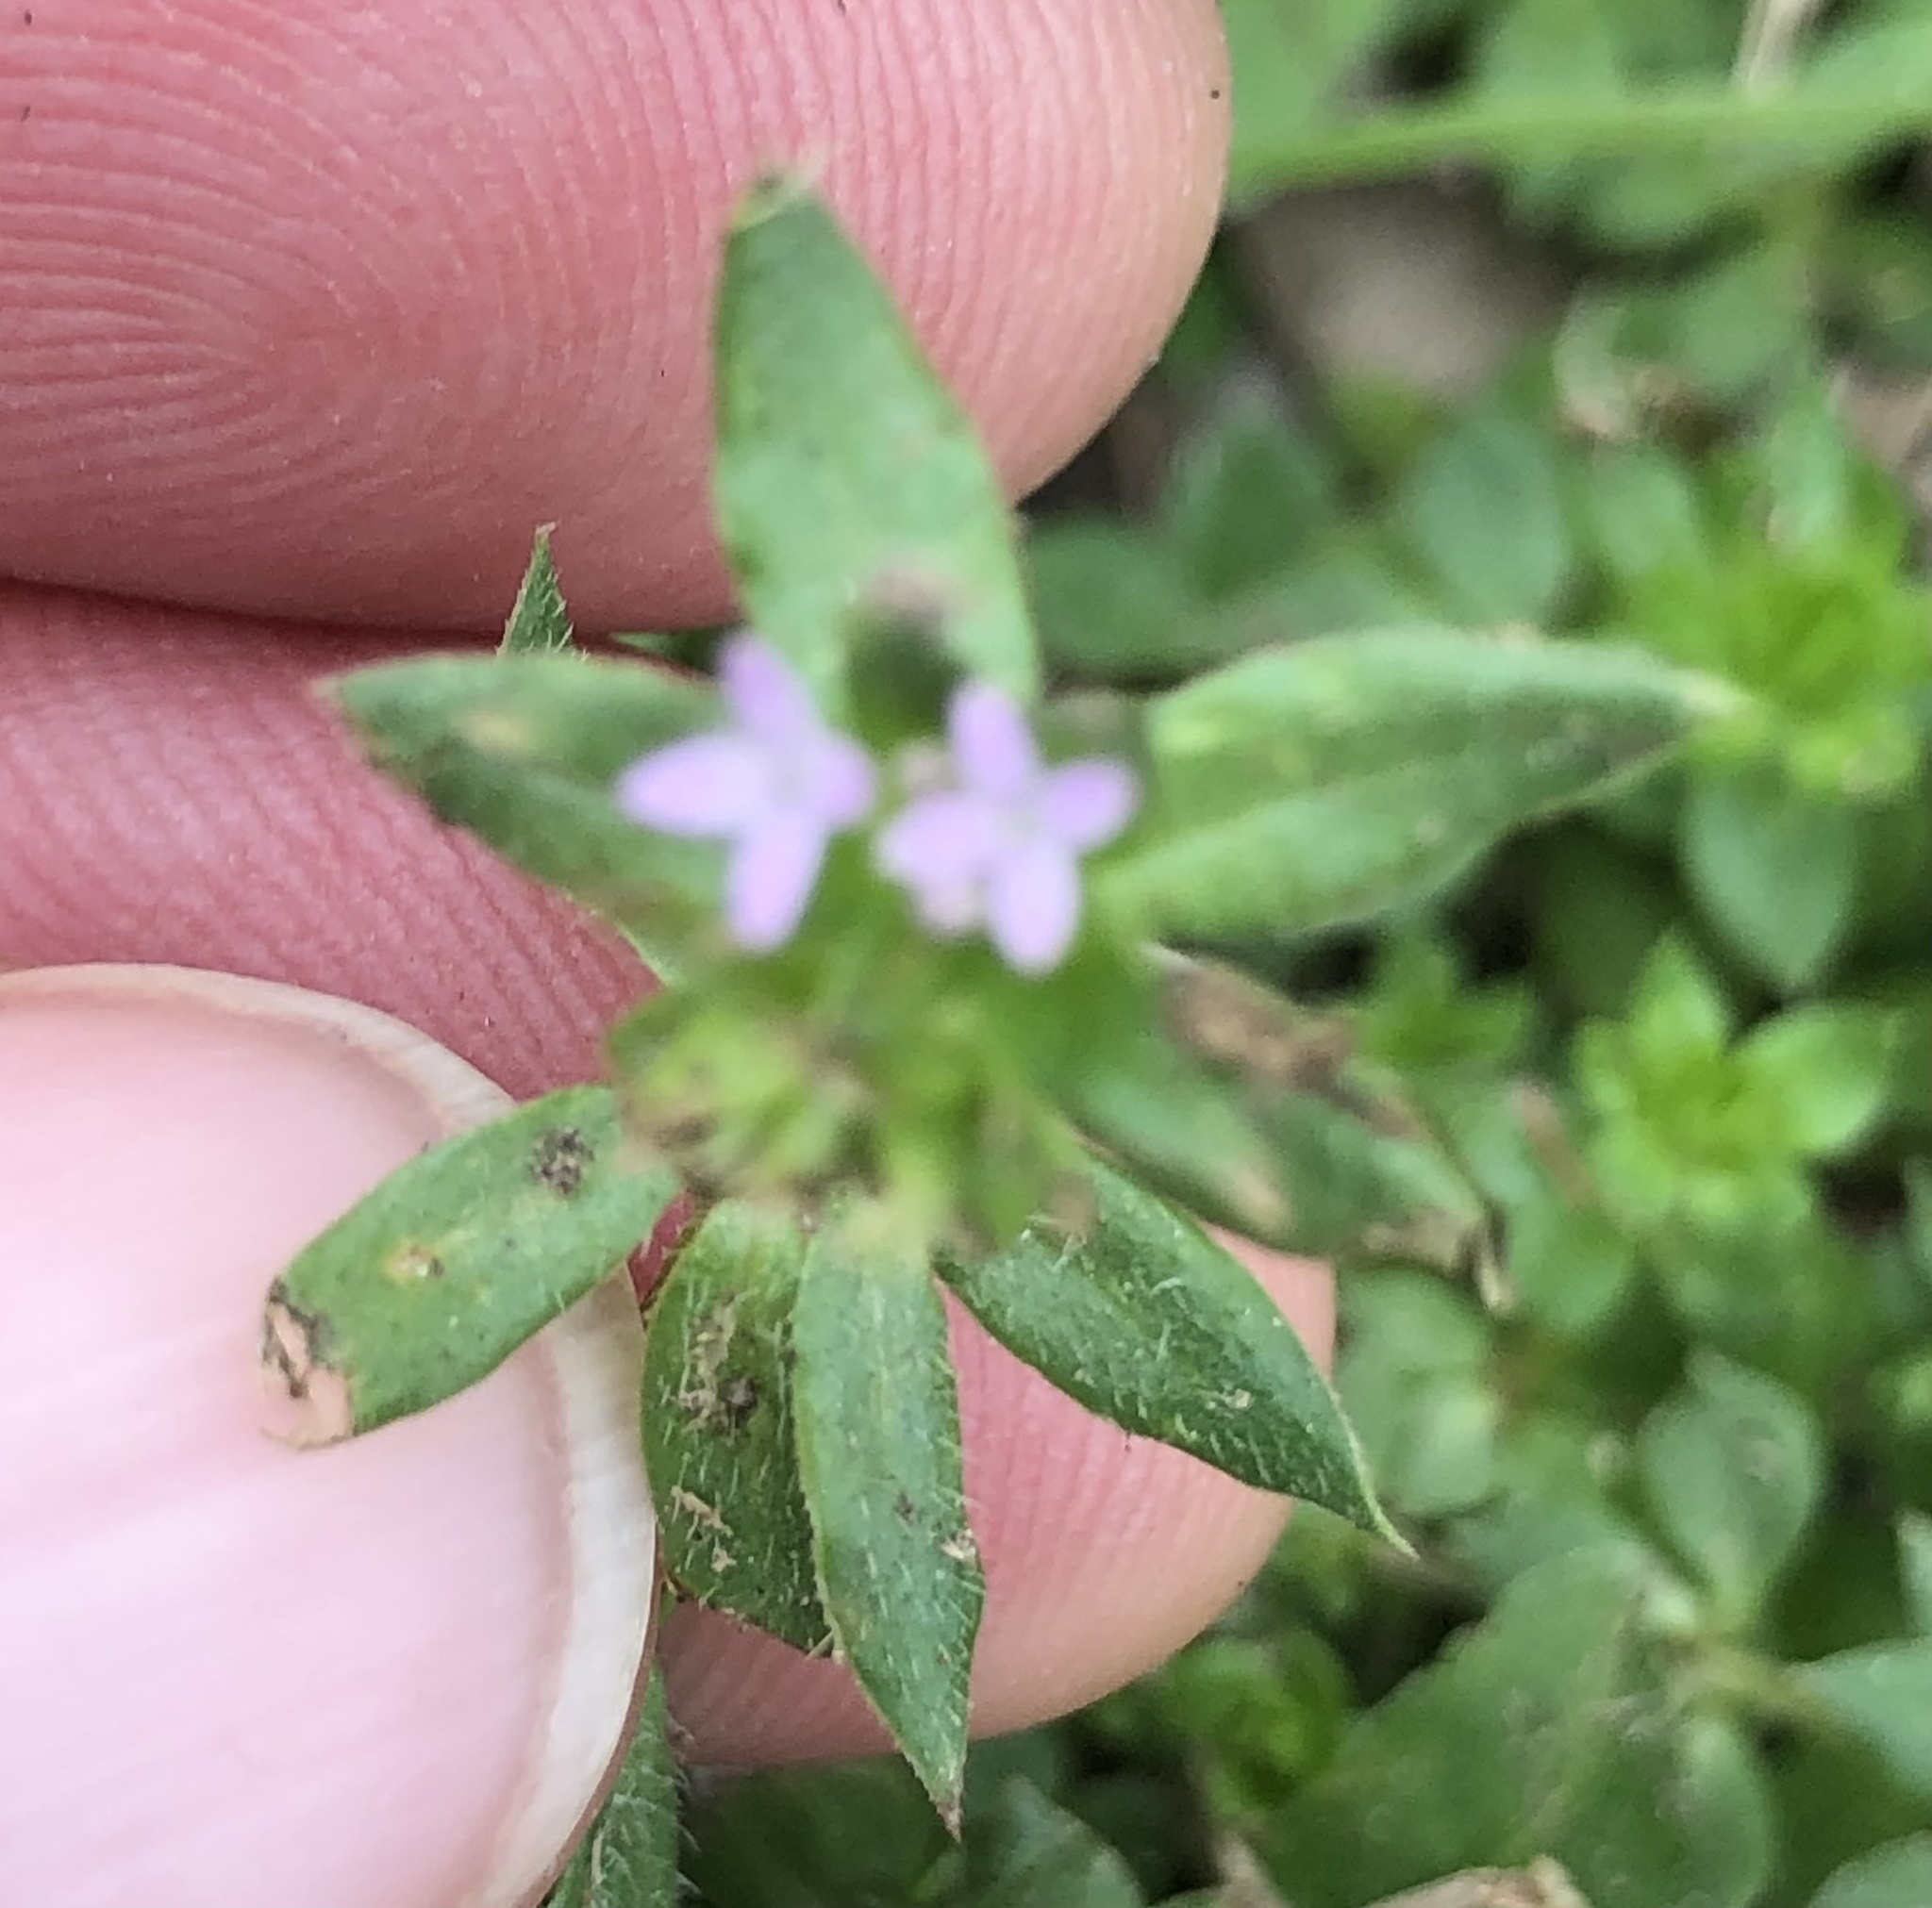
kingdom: Plantae
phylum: Tracheophyta
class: Magnoliopsida
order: Gentianales
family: Rubiaceae
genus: Sherardia
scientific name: Sherardia arvensis
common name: Field madder
